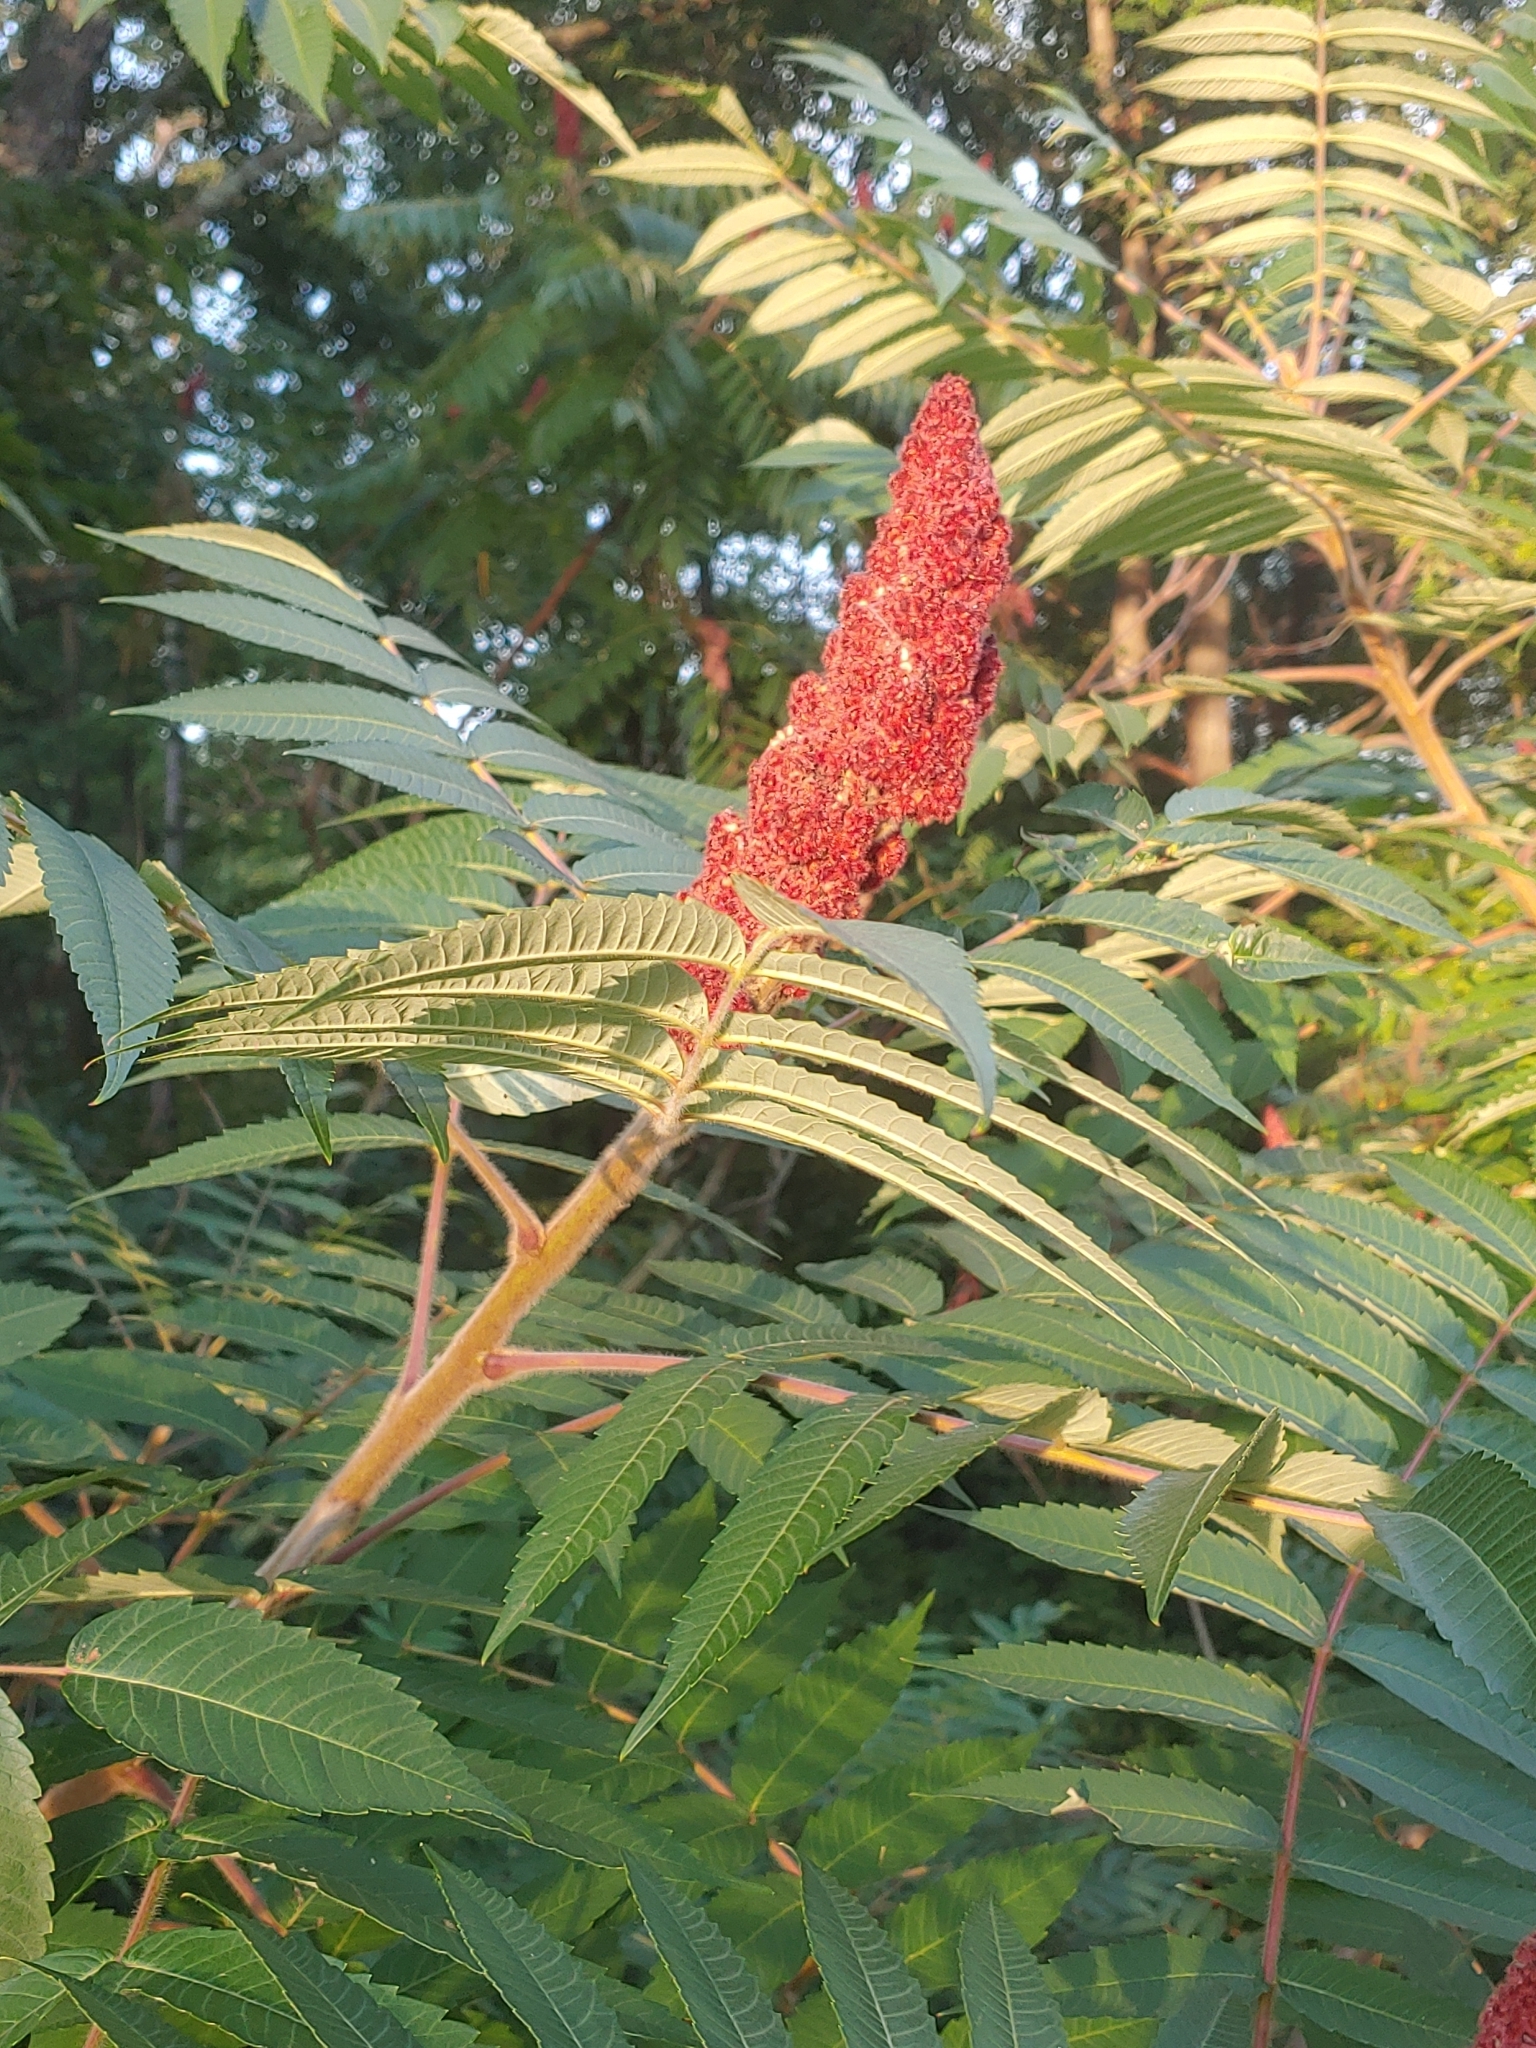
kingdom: Plantae
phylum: Tracheophyta
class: Magnoliopsida
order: Sapindales
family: Anacardiaceae
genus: Rhus
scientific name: Rhus typhina
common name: Staghorn sumac
